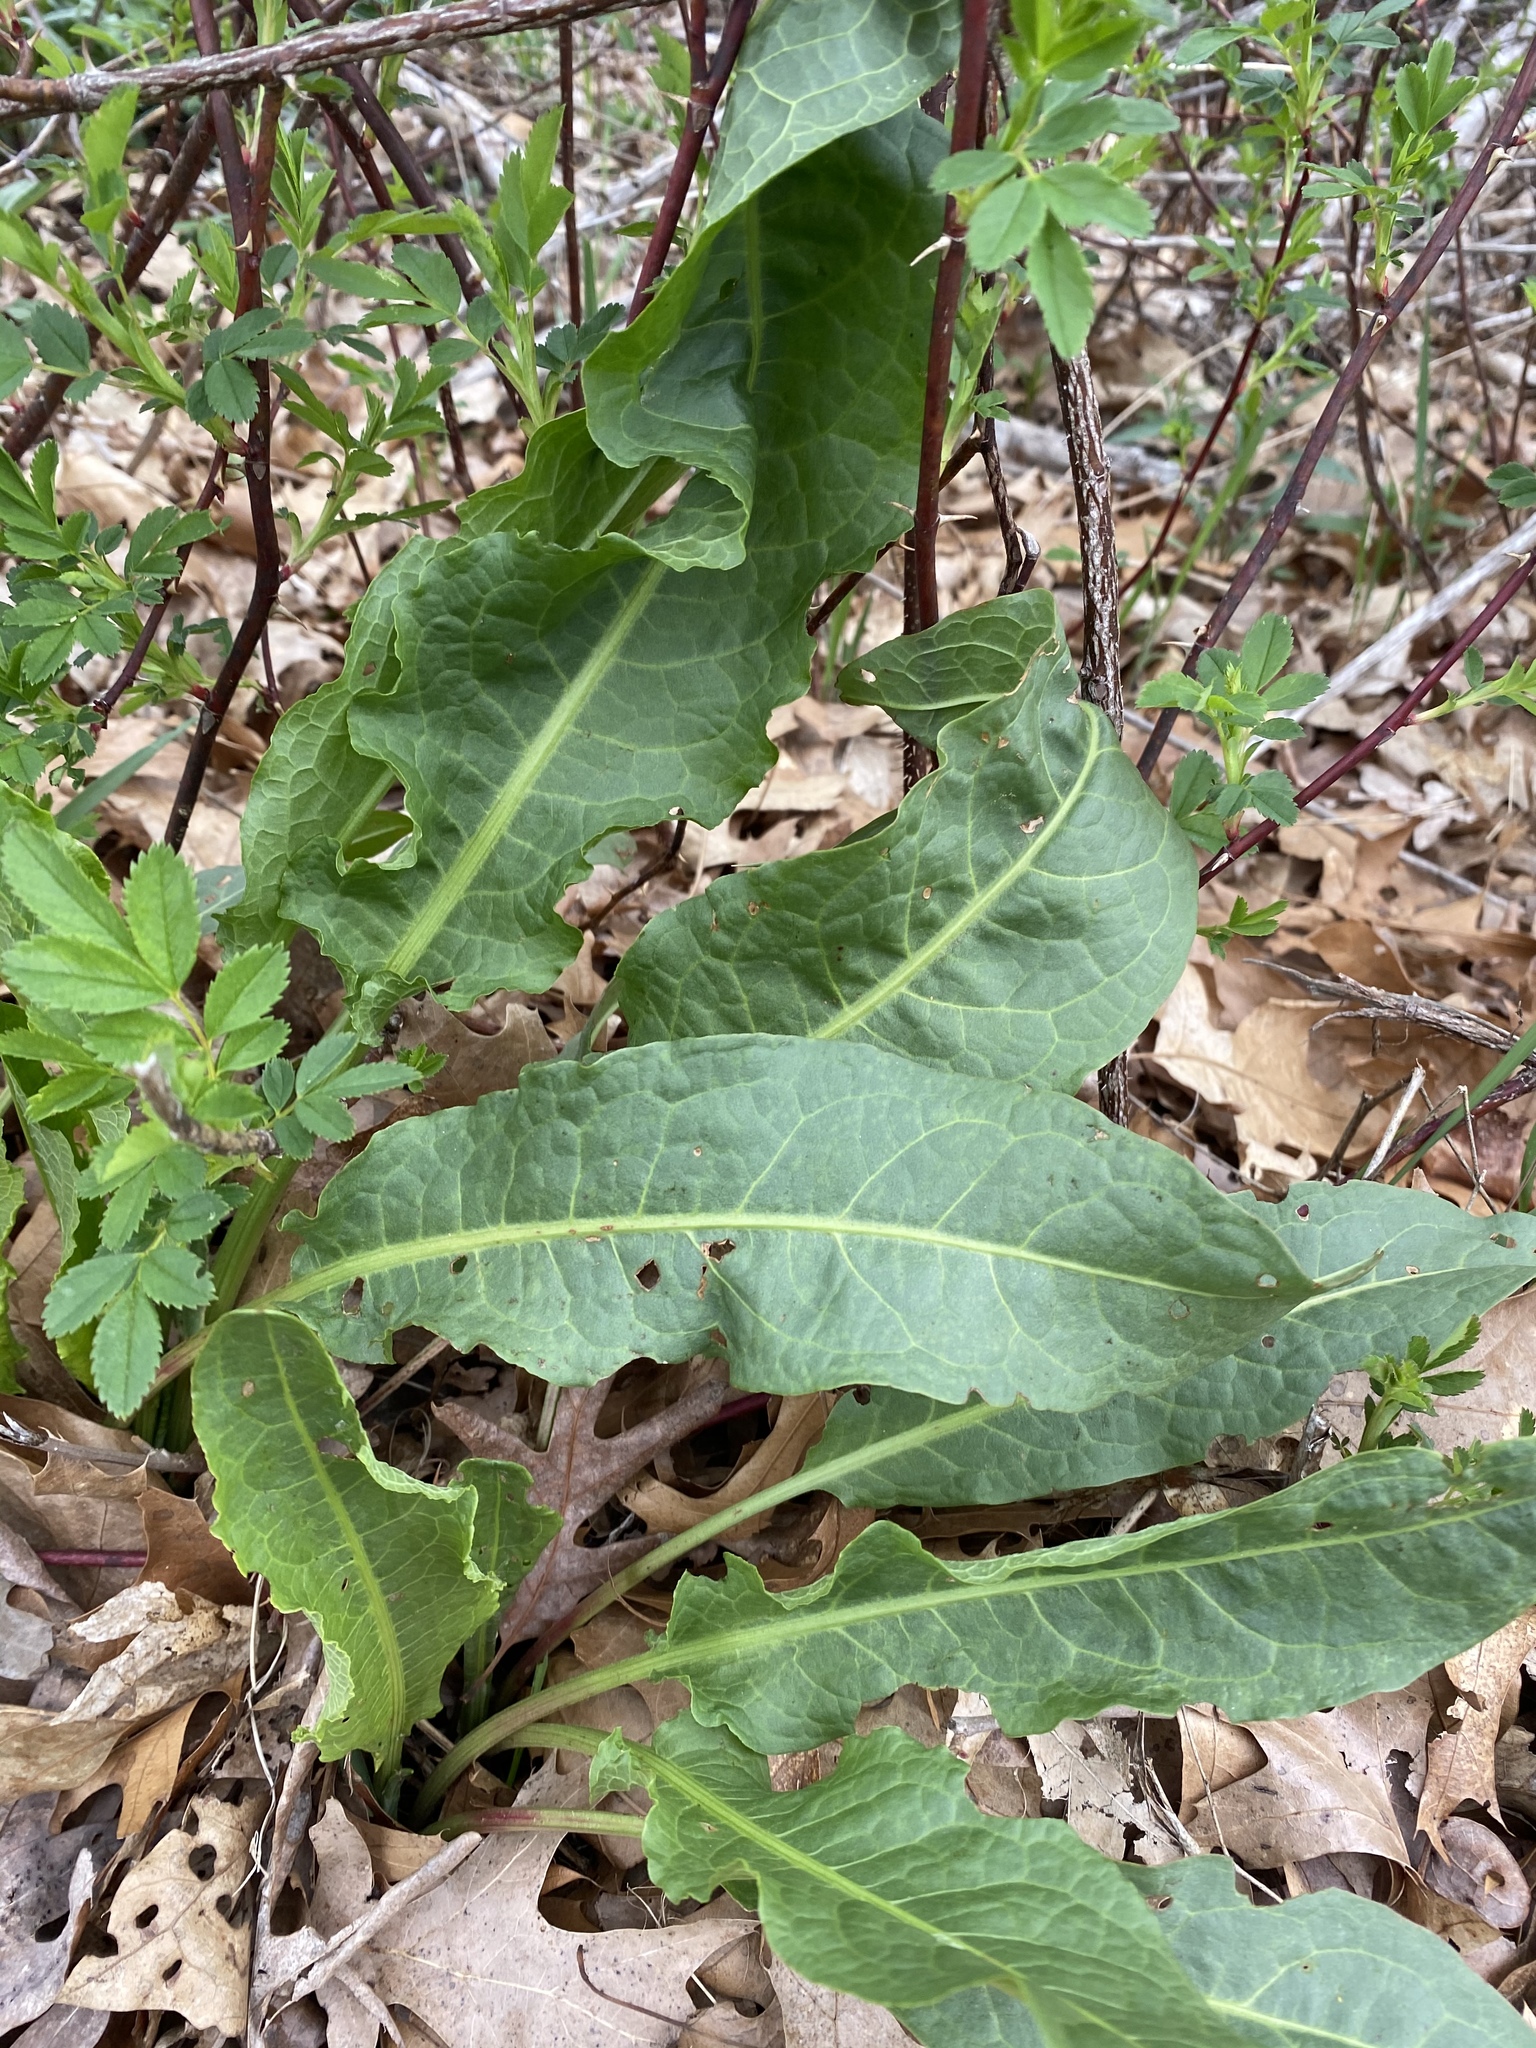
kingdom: Plantae
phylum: Tracheophyta
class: Magnoliopsida
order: Caryophyllales
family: Polygonaceae
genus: Rumex
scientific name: Rumex crispus
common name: Curled dock
